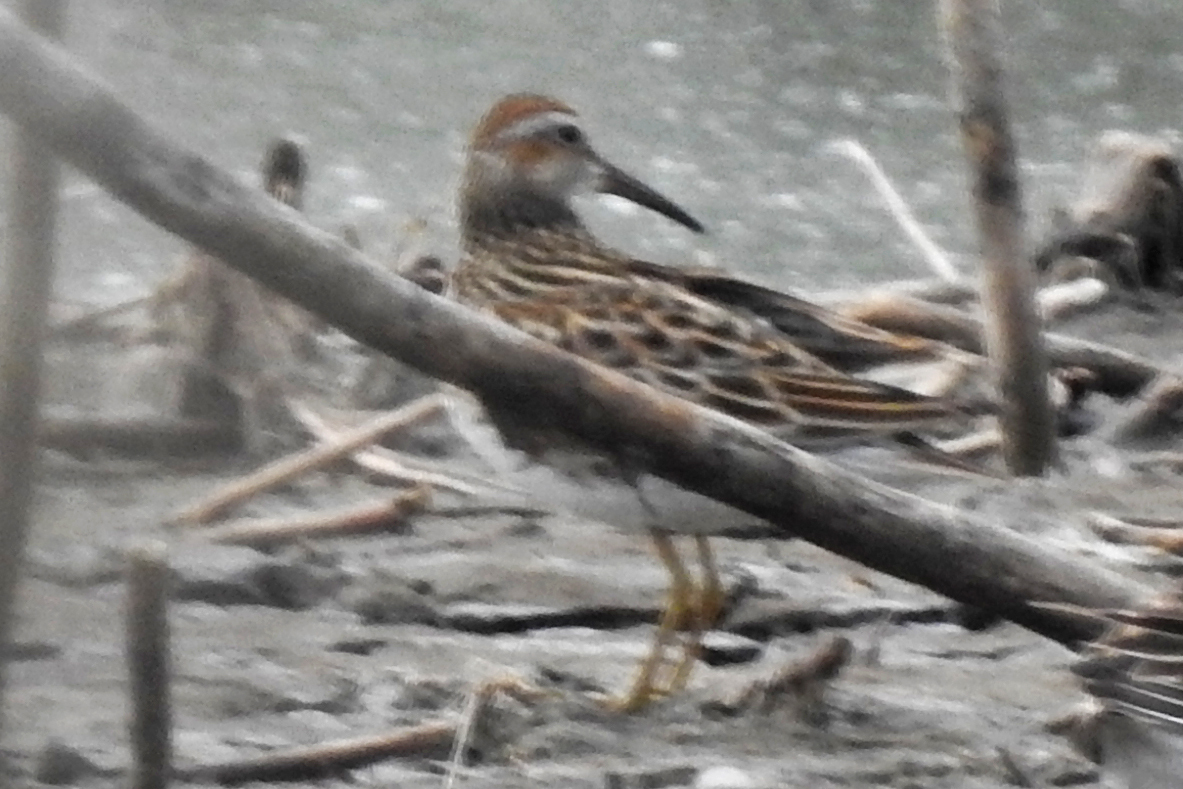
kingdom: Animalia
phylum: Chordata
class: Aves
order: Charadriiformes
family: Scolopacidae
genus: Calidris
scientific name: Calidris melanotos
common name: Pectoral sandpiper
